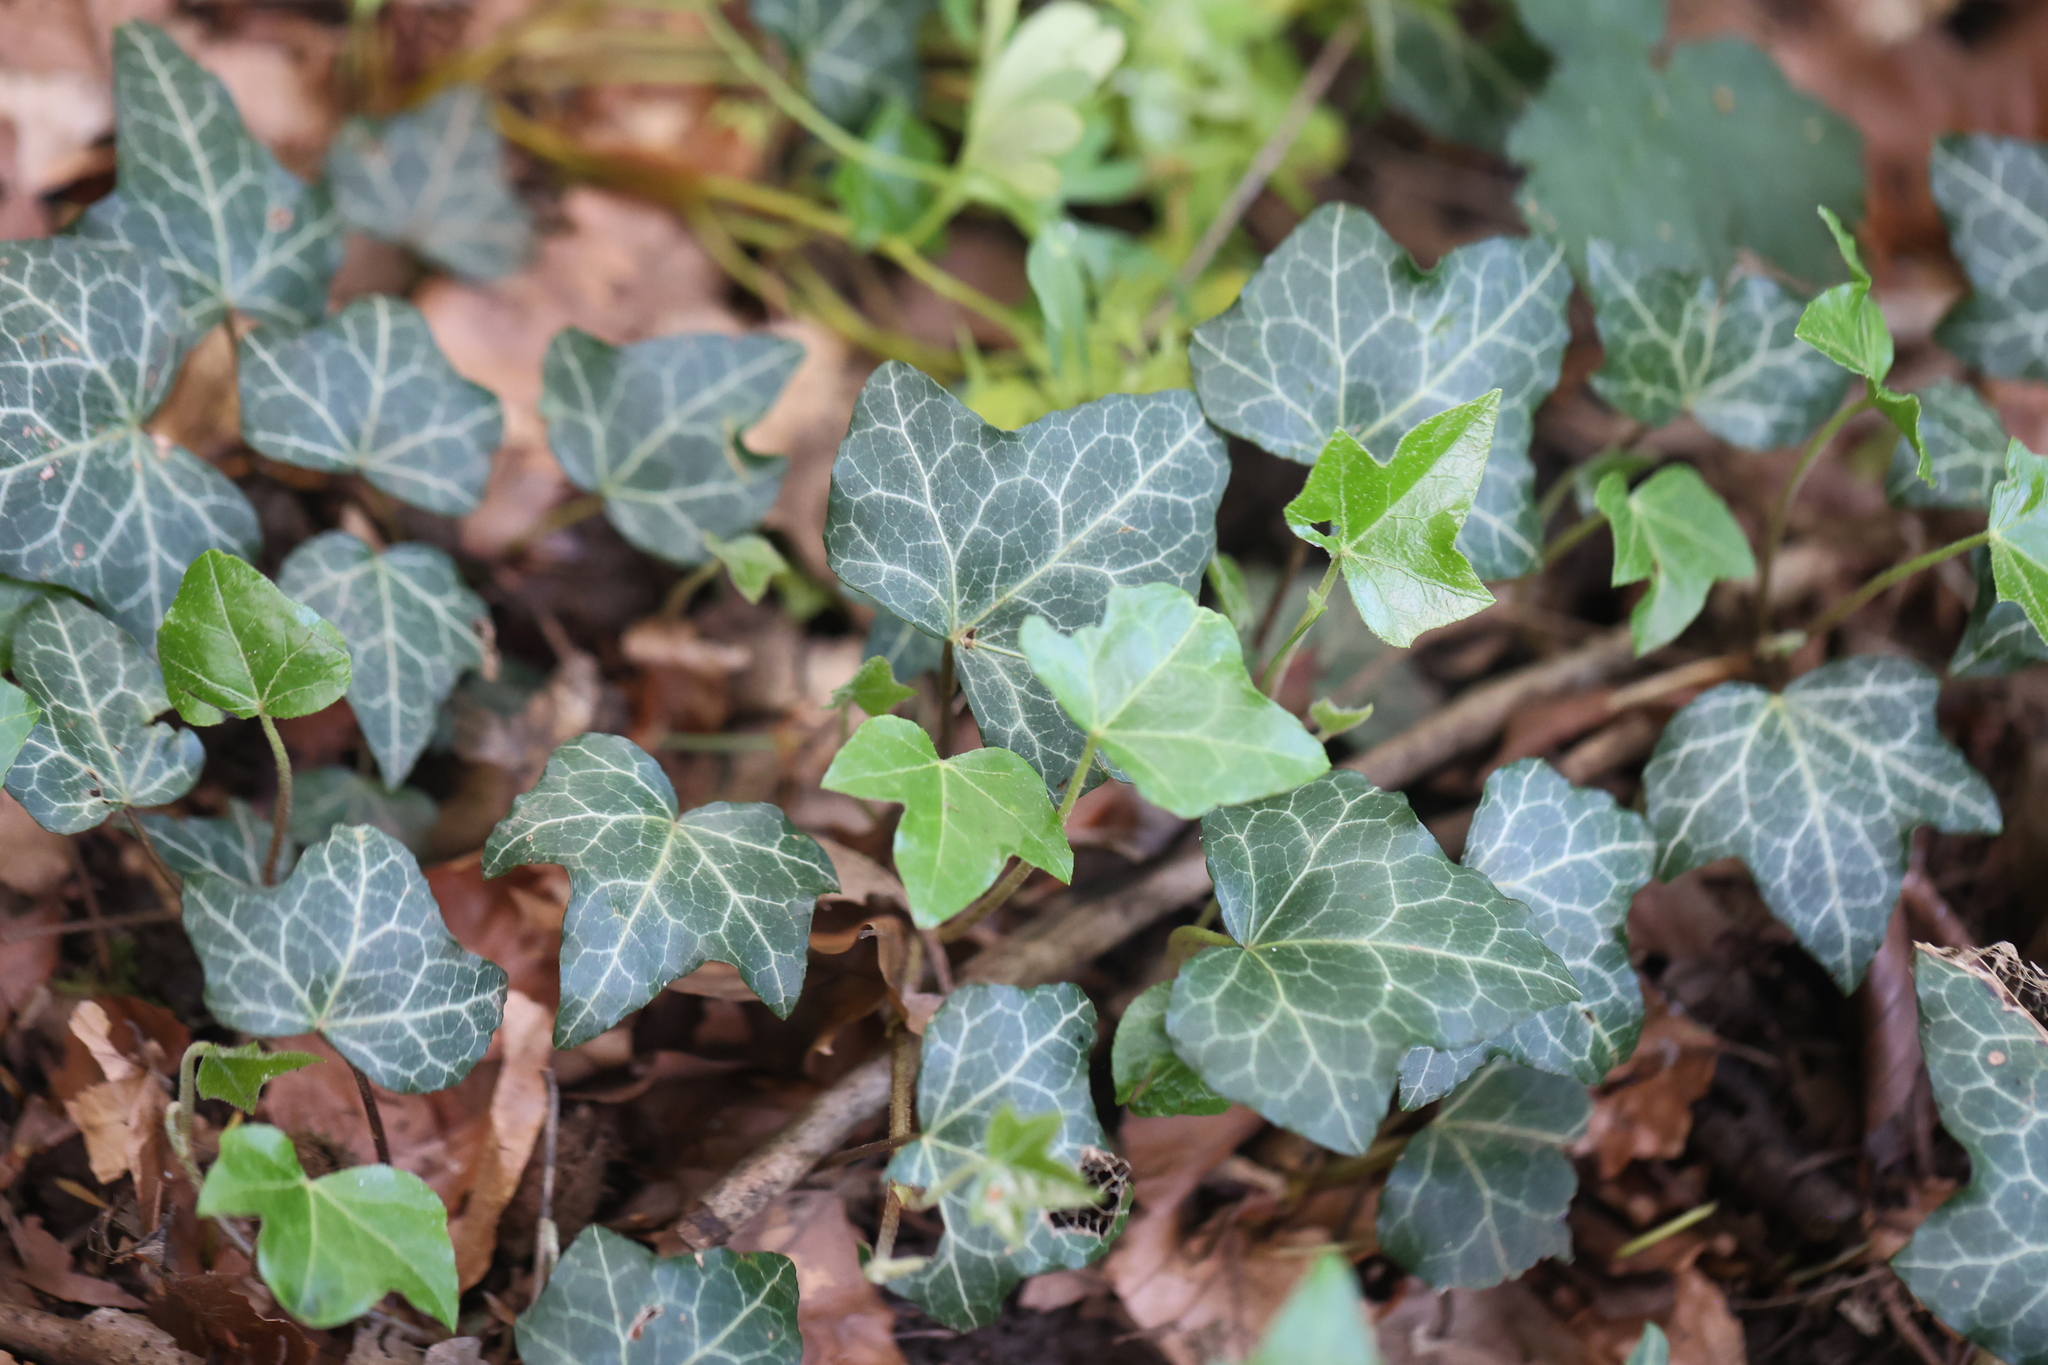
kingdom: Plantae
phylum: Tracheophyta
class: Magnoliopsida
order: Apiales
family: Araliaceae
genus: Hedera
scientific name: Hedera helix
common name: Ivy
